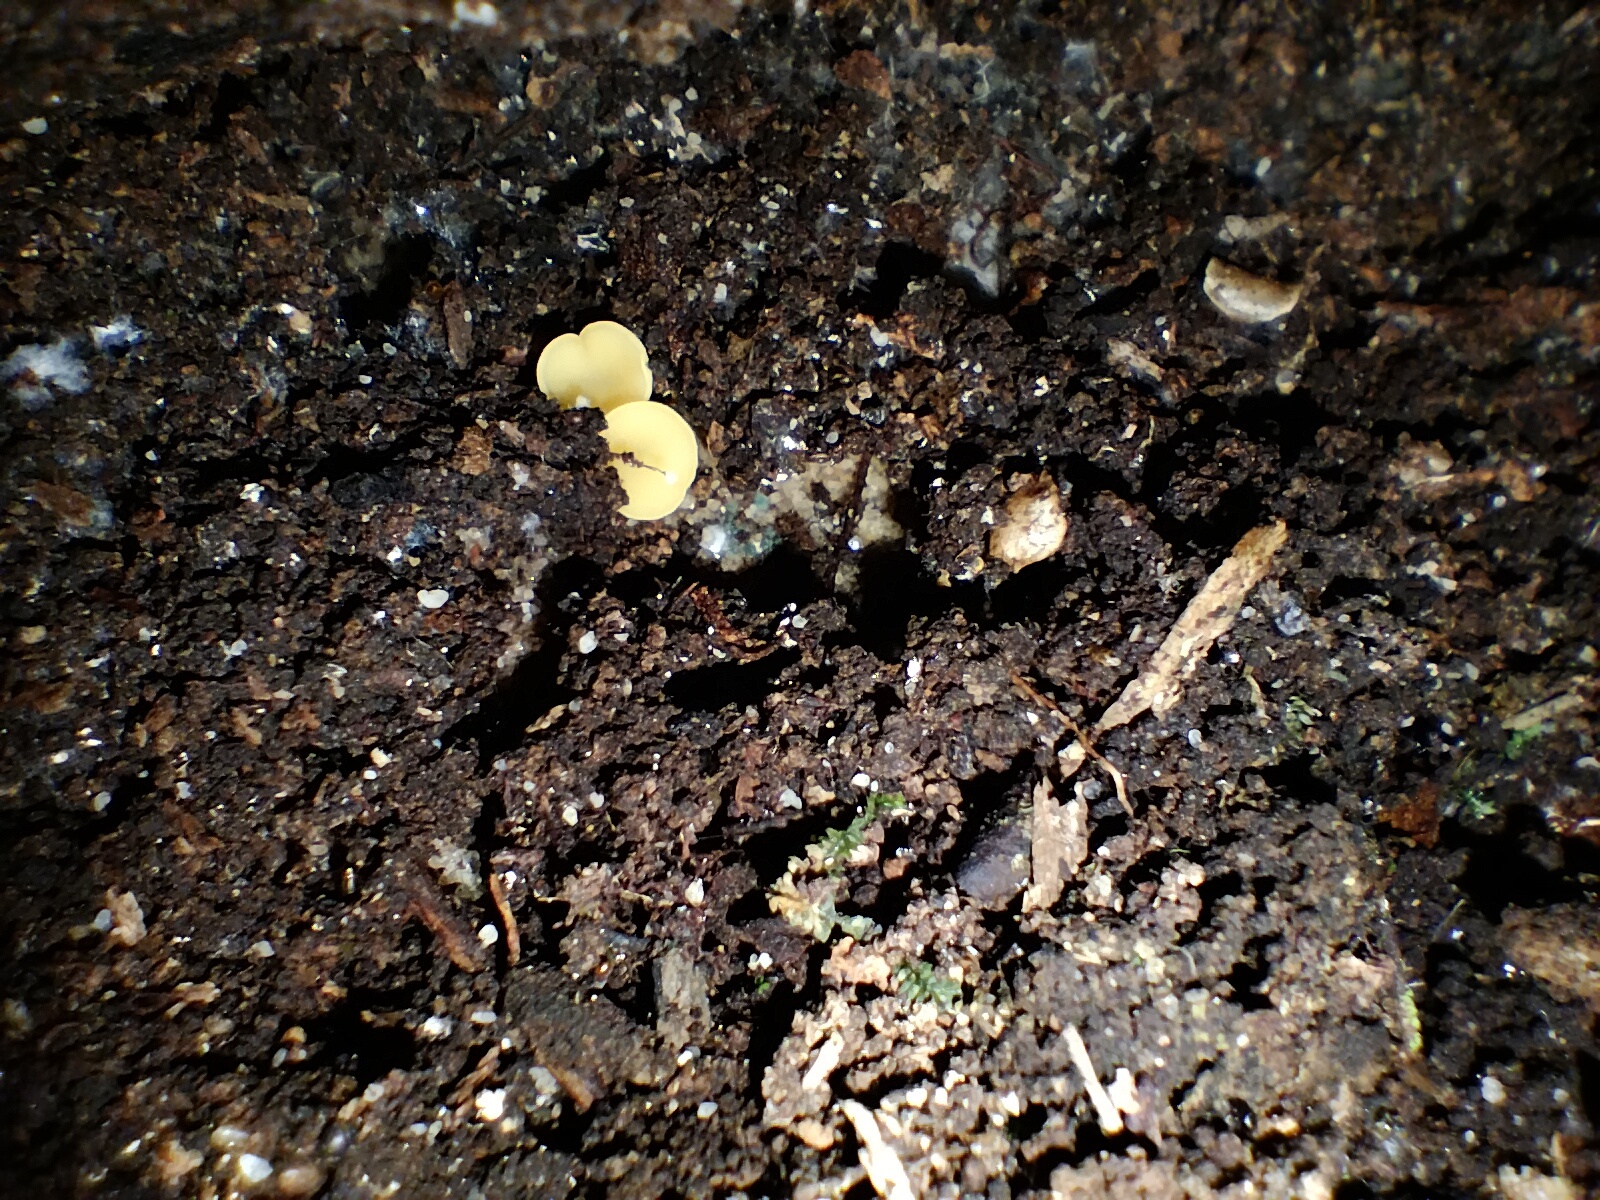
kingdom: Fungi
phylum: Ascomycota
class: Leotiomycetes
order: Helotiales
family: Helotiaceae
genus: Phaeohelotium
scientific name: Phaeohelotium baileyanum
